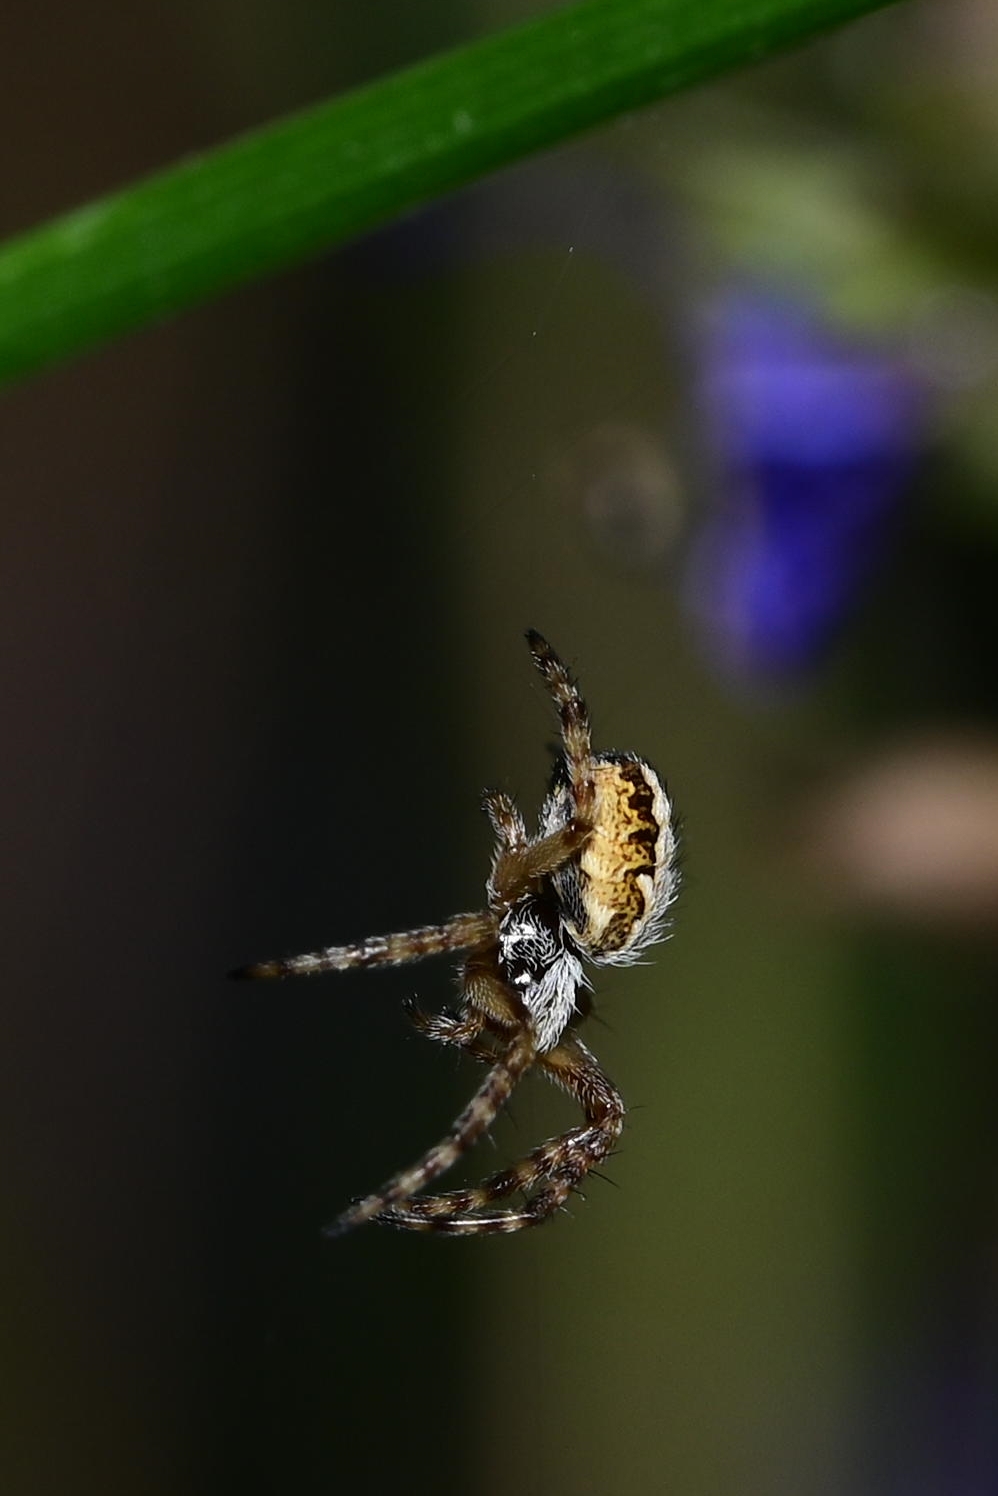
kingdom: Animalia
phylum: Arthropoda
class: Arachnida
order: Araneae
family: Araneidae
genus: Aculepeira
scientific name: Aculepeira ceropegia
